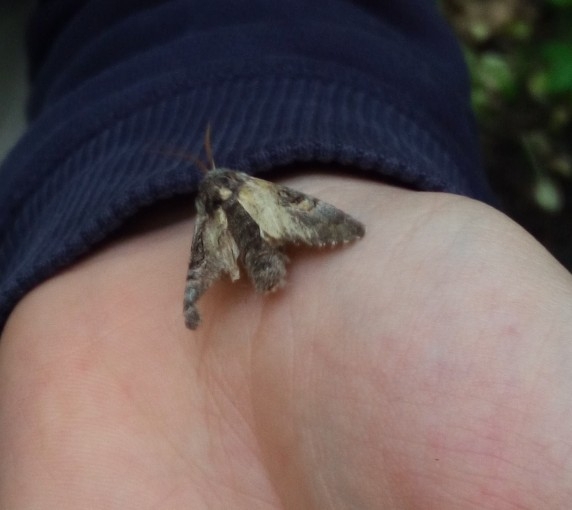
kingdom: Animalia
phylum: Arthropoda
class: Insecta
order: Lepidoptera
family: Noctuidae
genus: Colocasia
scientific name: Colocasia coryli
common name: Nut-tree tussock
